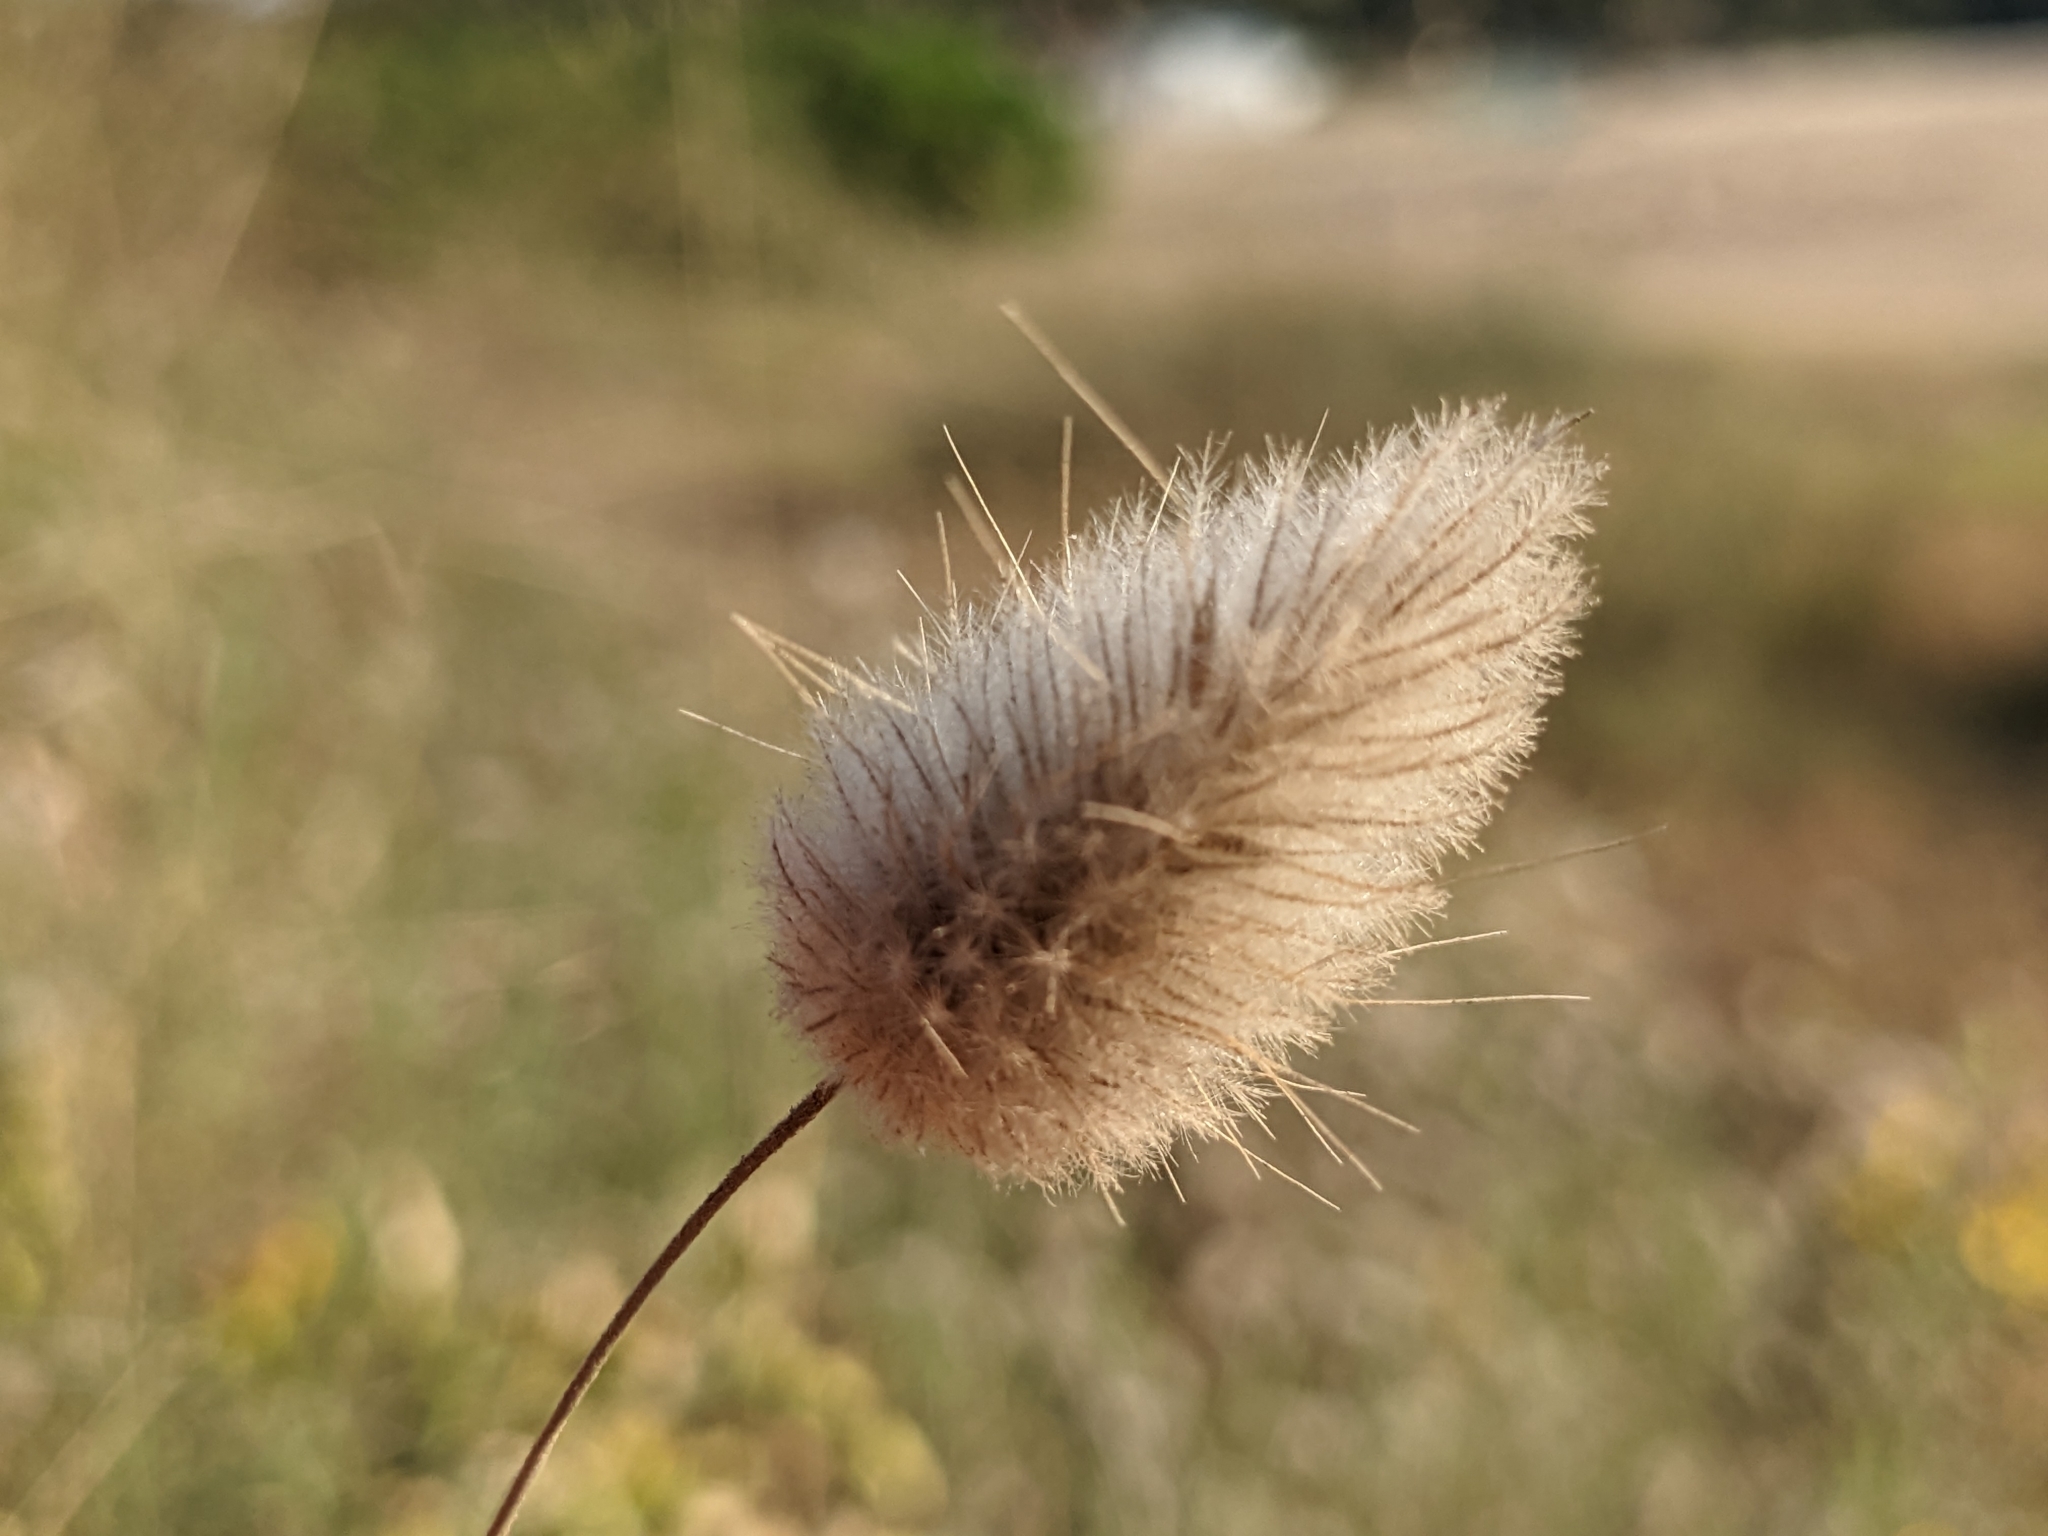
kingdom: Plantae
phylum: Tracheophyta
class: Liliopsida
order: Poales
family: Poaceae
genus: Lagurus
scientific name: Lagurus ovatus
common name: Hare's-tail
